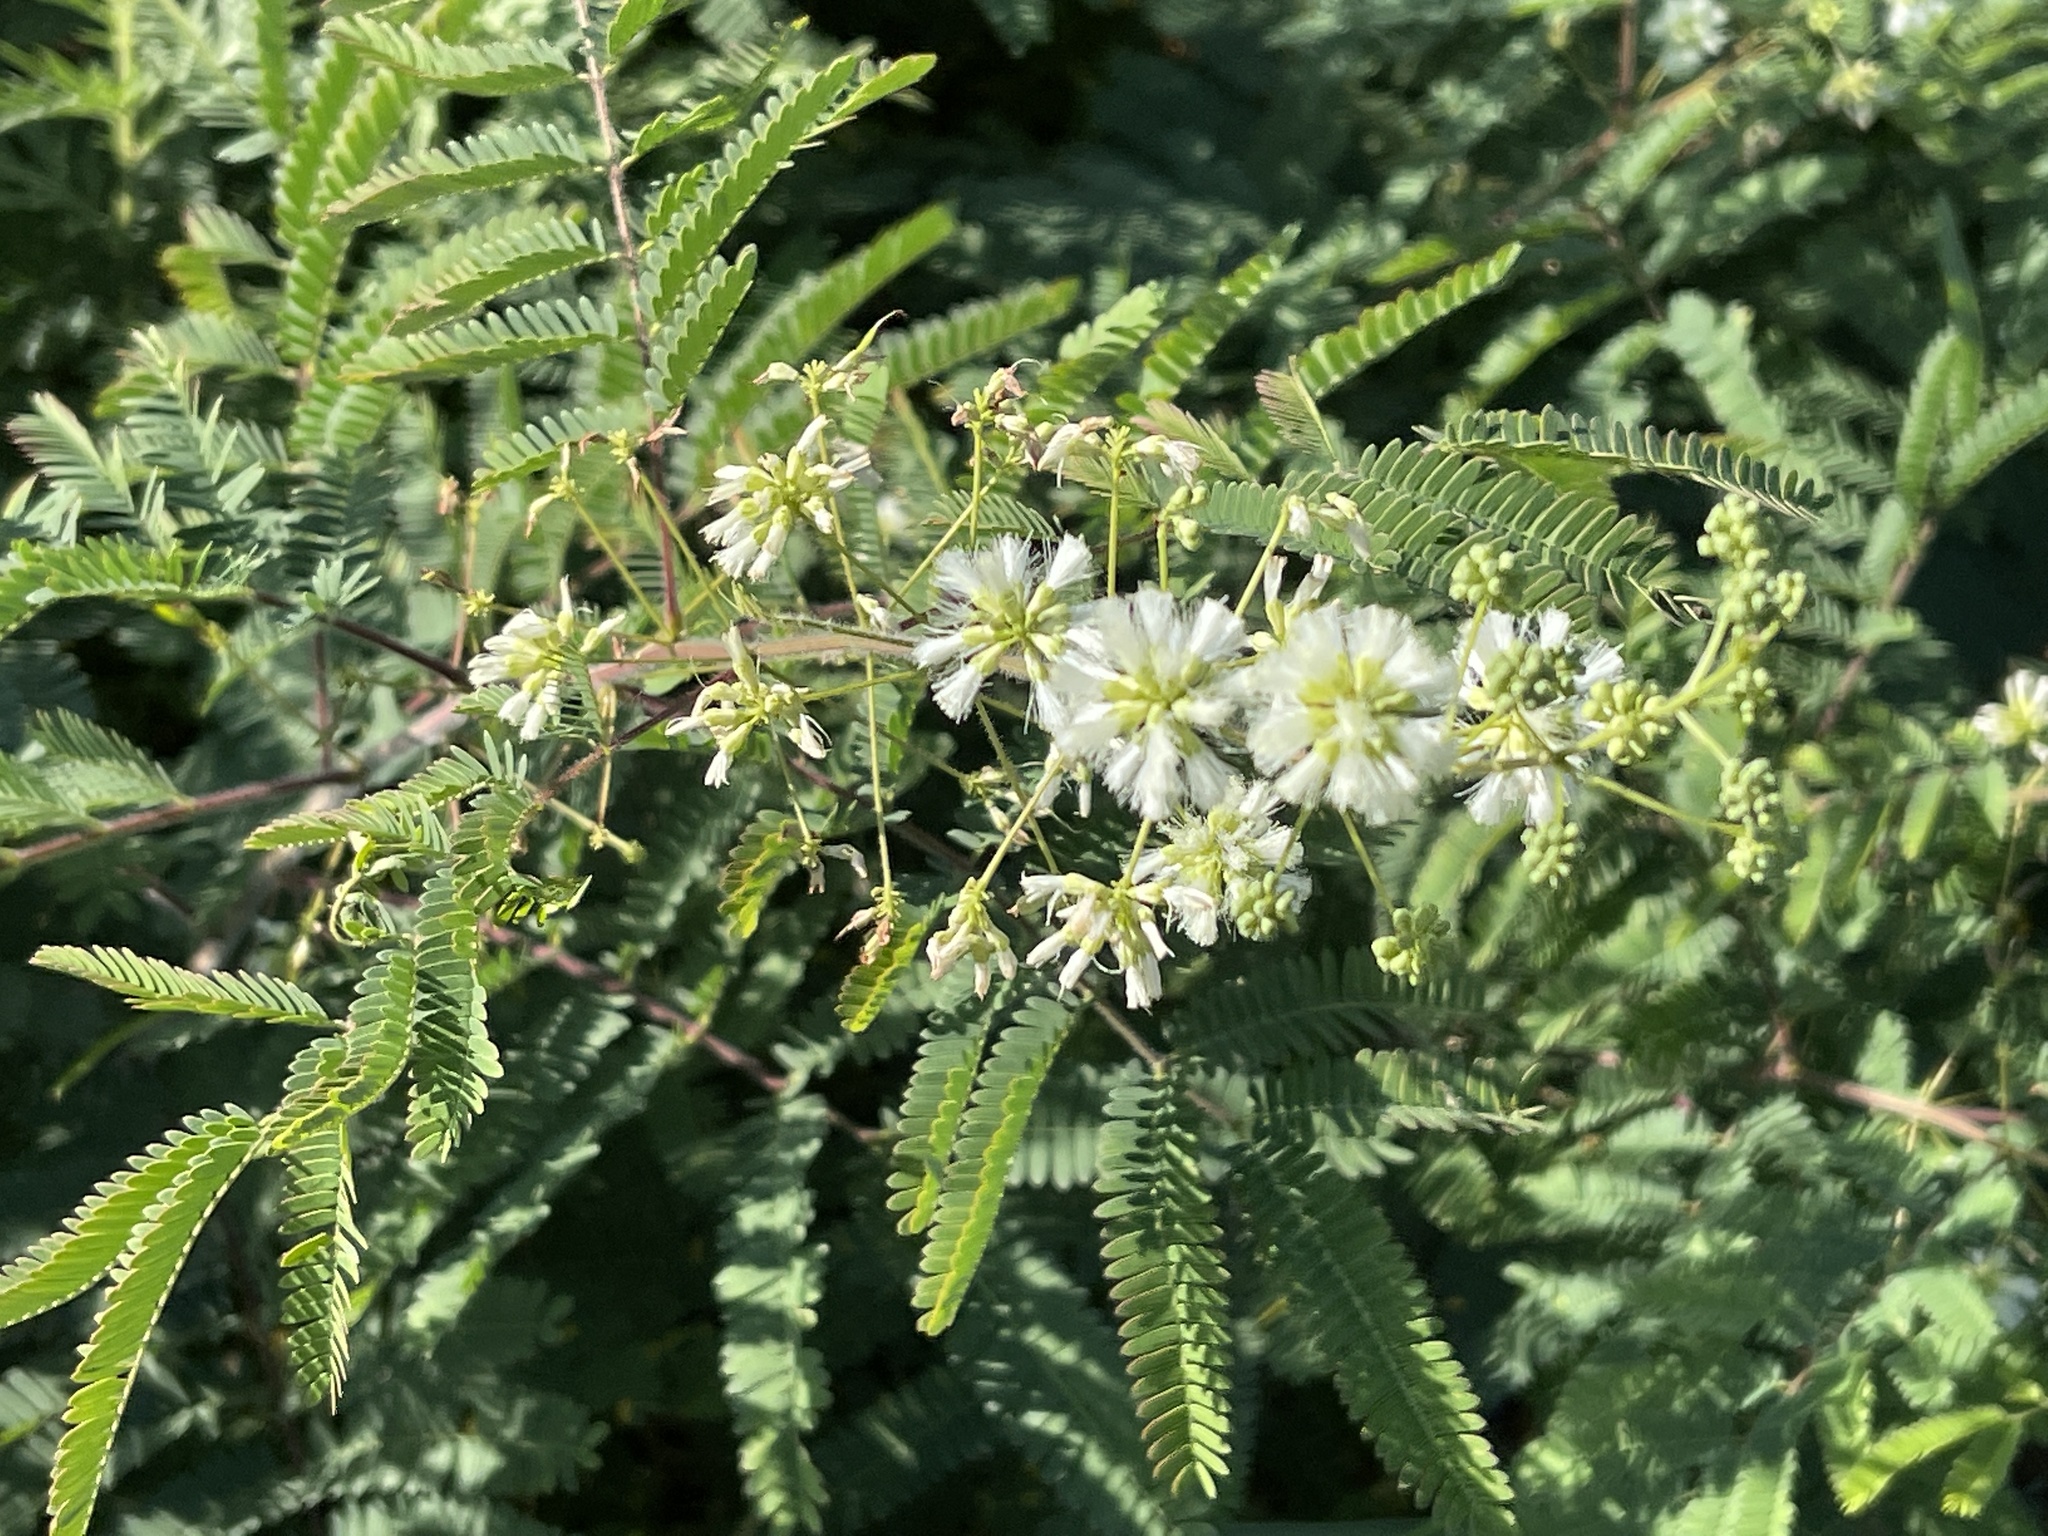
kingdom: Plantae
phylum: Tracheophyta
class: Magnoliopsida
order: Fabales
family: Fabaceae
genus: Acaciella
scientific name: Acaciella angustissima
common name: Prairie acacia
